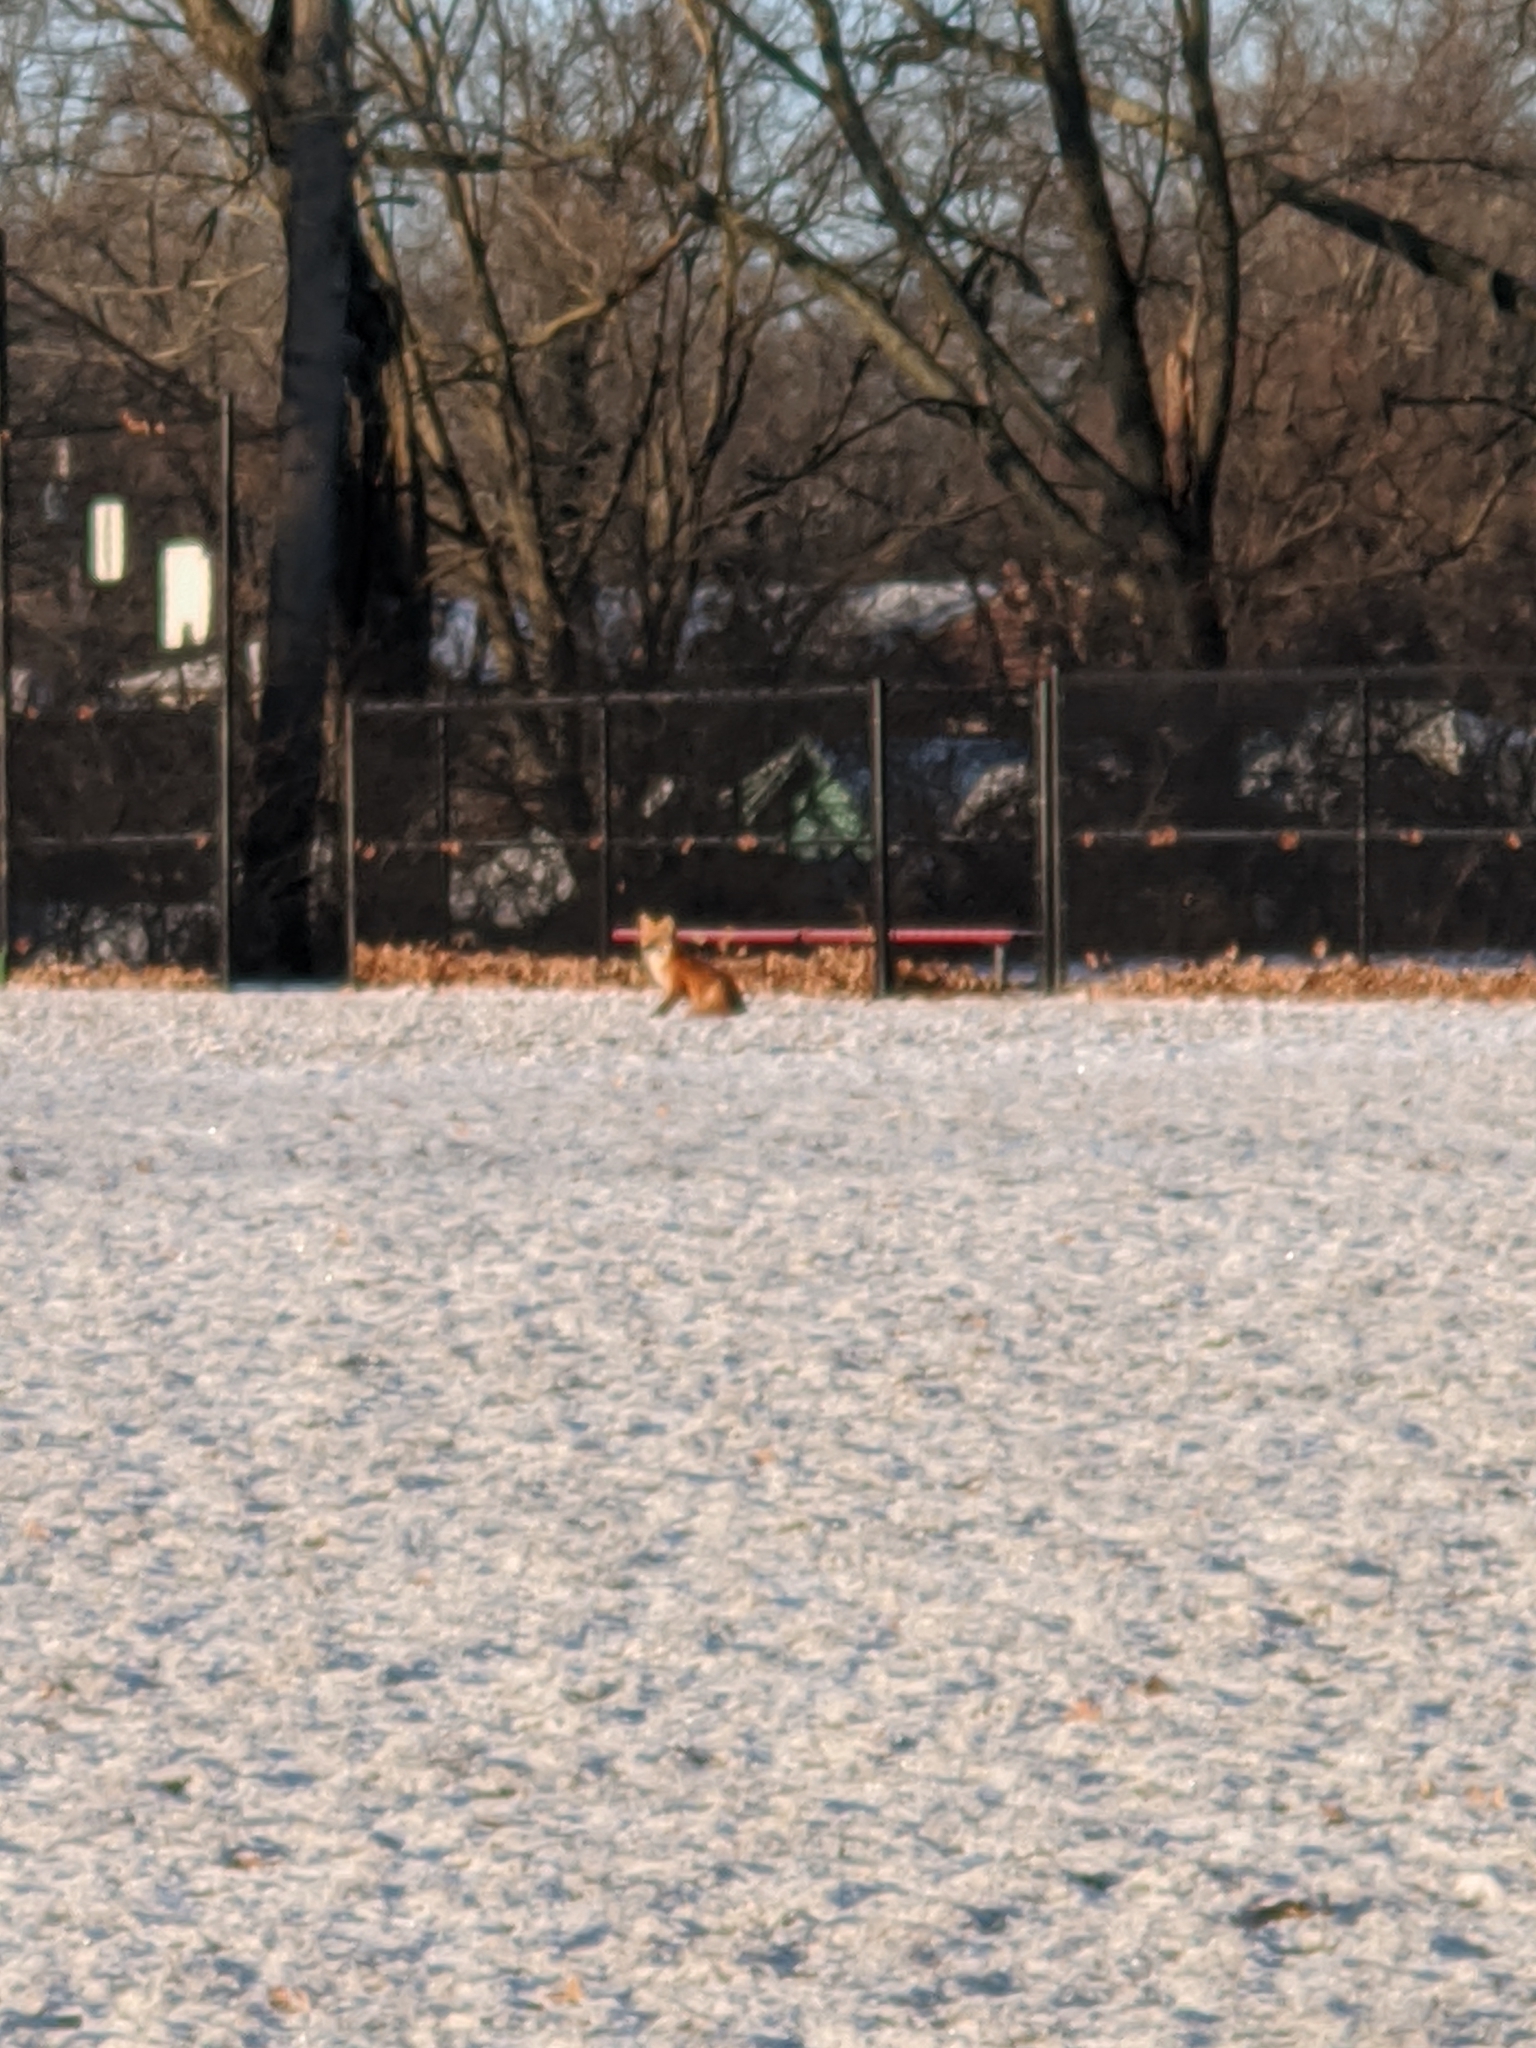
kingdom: Animalia
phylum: Chordata
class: Mammalia
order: Carnivora
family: Canidae
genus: Vulpes
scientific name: Vulpes vulpes
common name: Red fox
